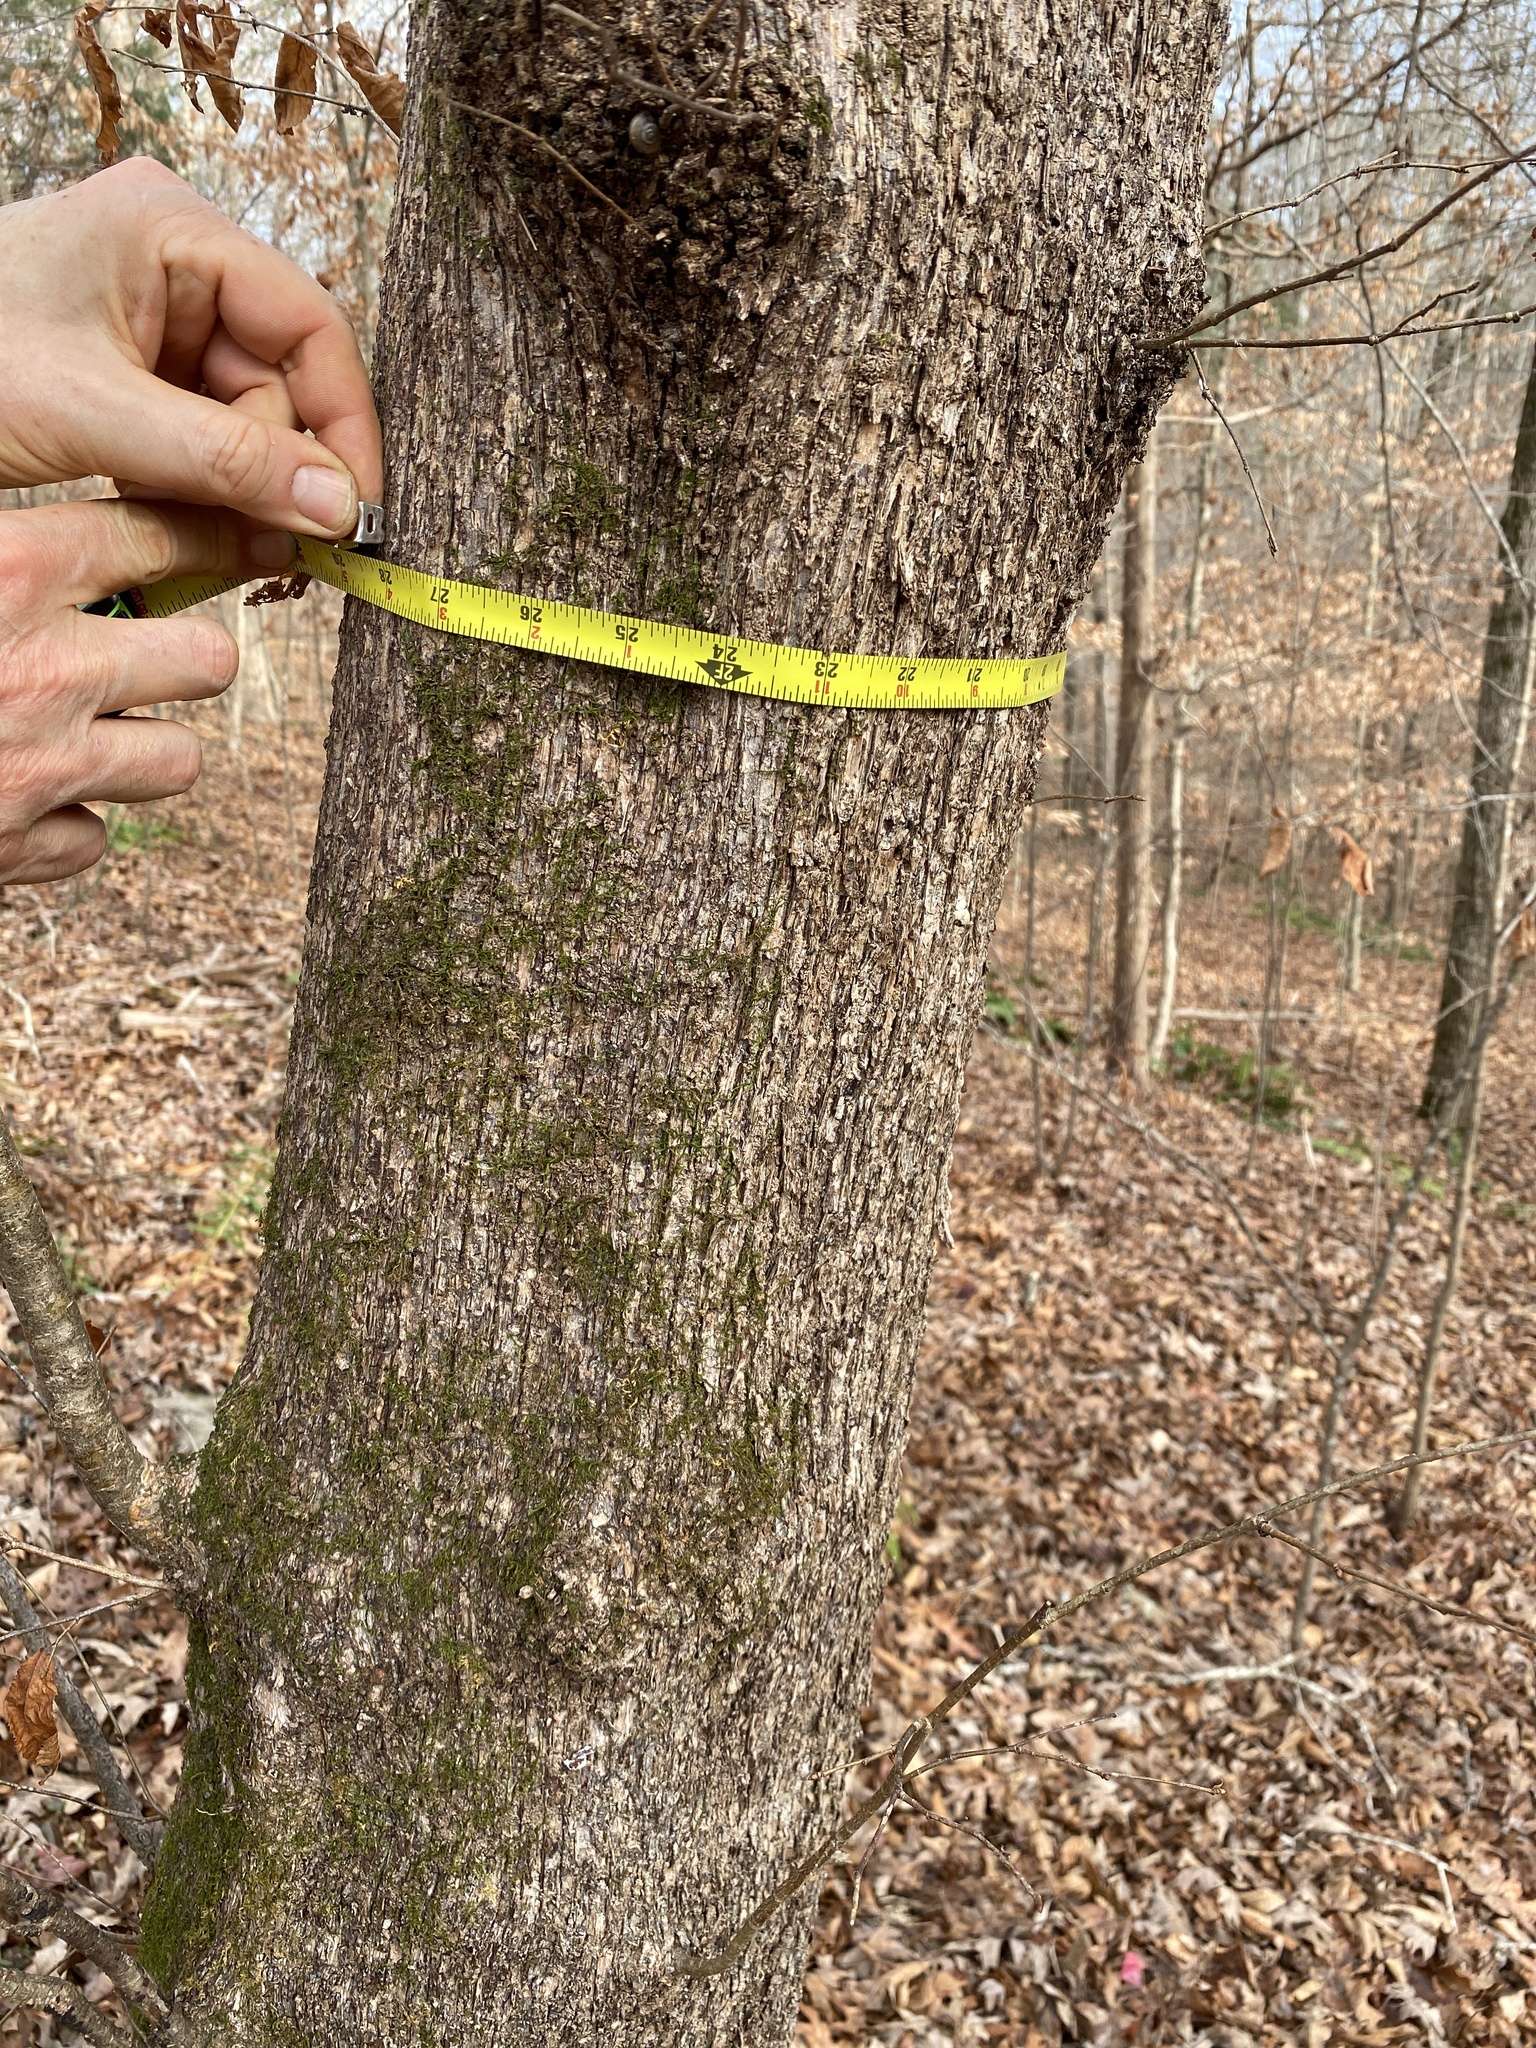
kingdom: Plantae
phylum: Tracheophyta
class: Magnoliopsida
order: Fagales
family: Betulaceae
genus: Ostrya
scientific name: Ostrya virginiana
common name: Ironwood
